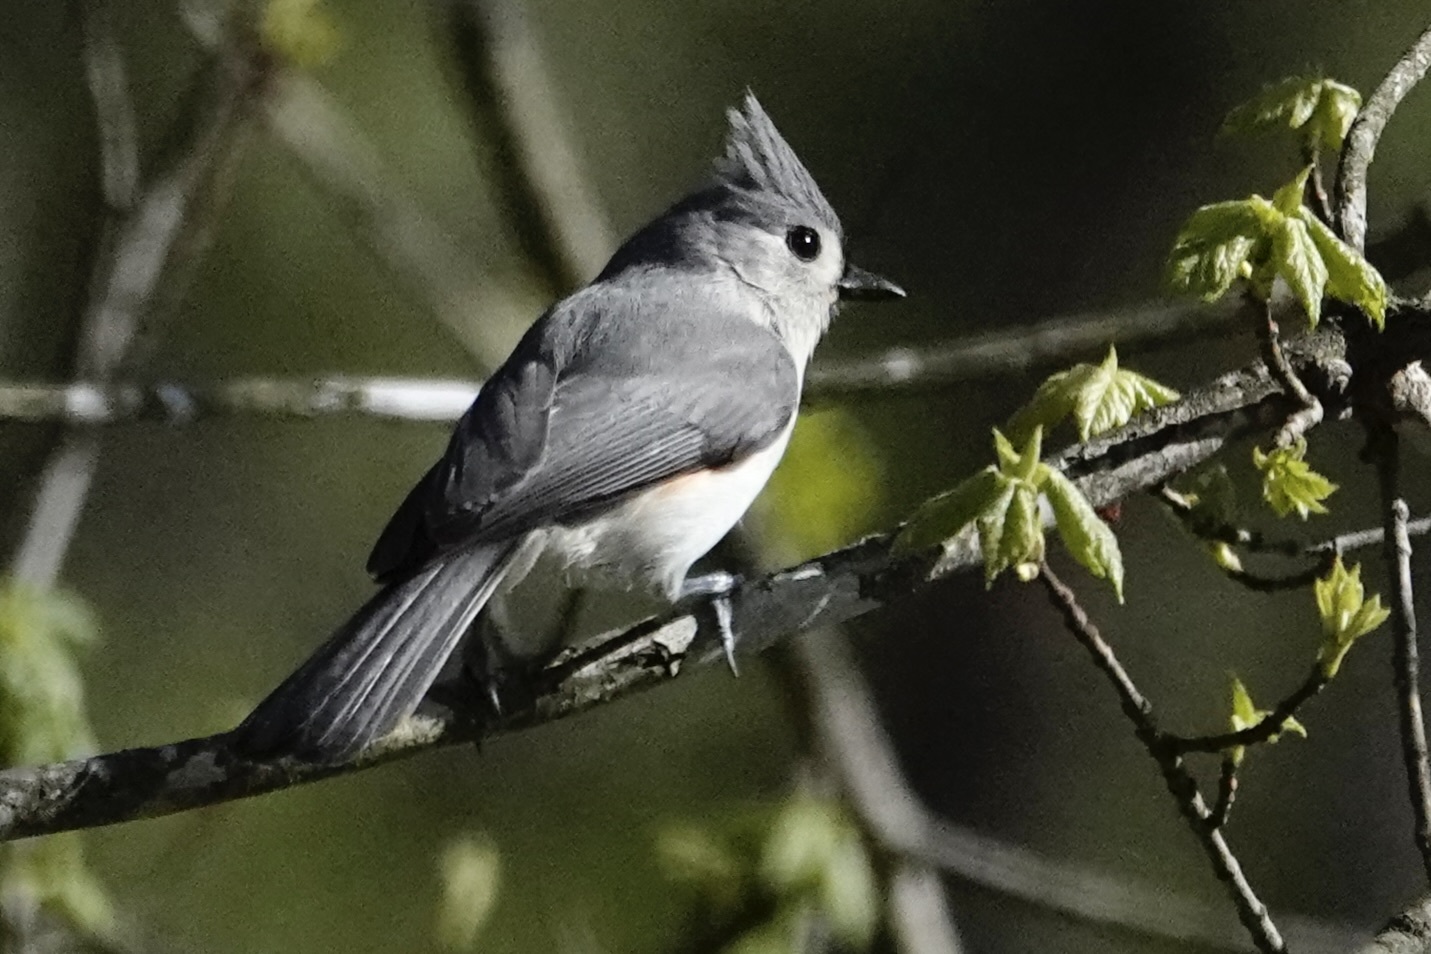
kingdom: Animalia
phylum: Chordata
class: Aves
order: Passeriformes
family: Paridae
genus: Baeolophus
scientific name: Baeolophus bicolor
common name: Tufted titmouse
